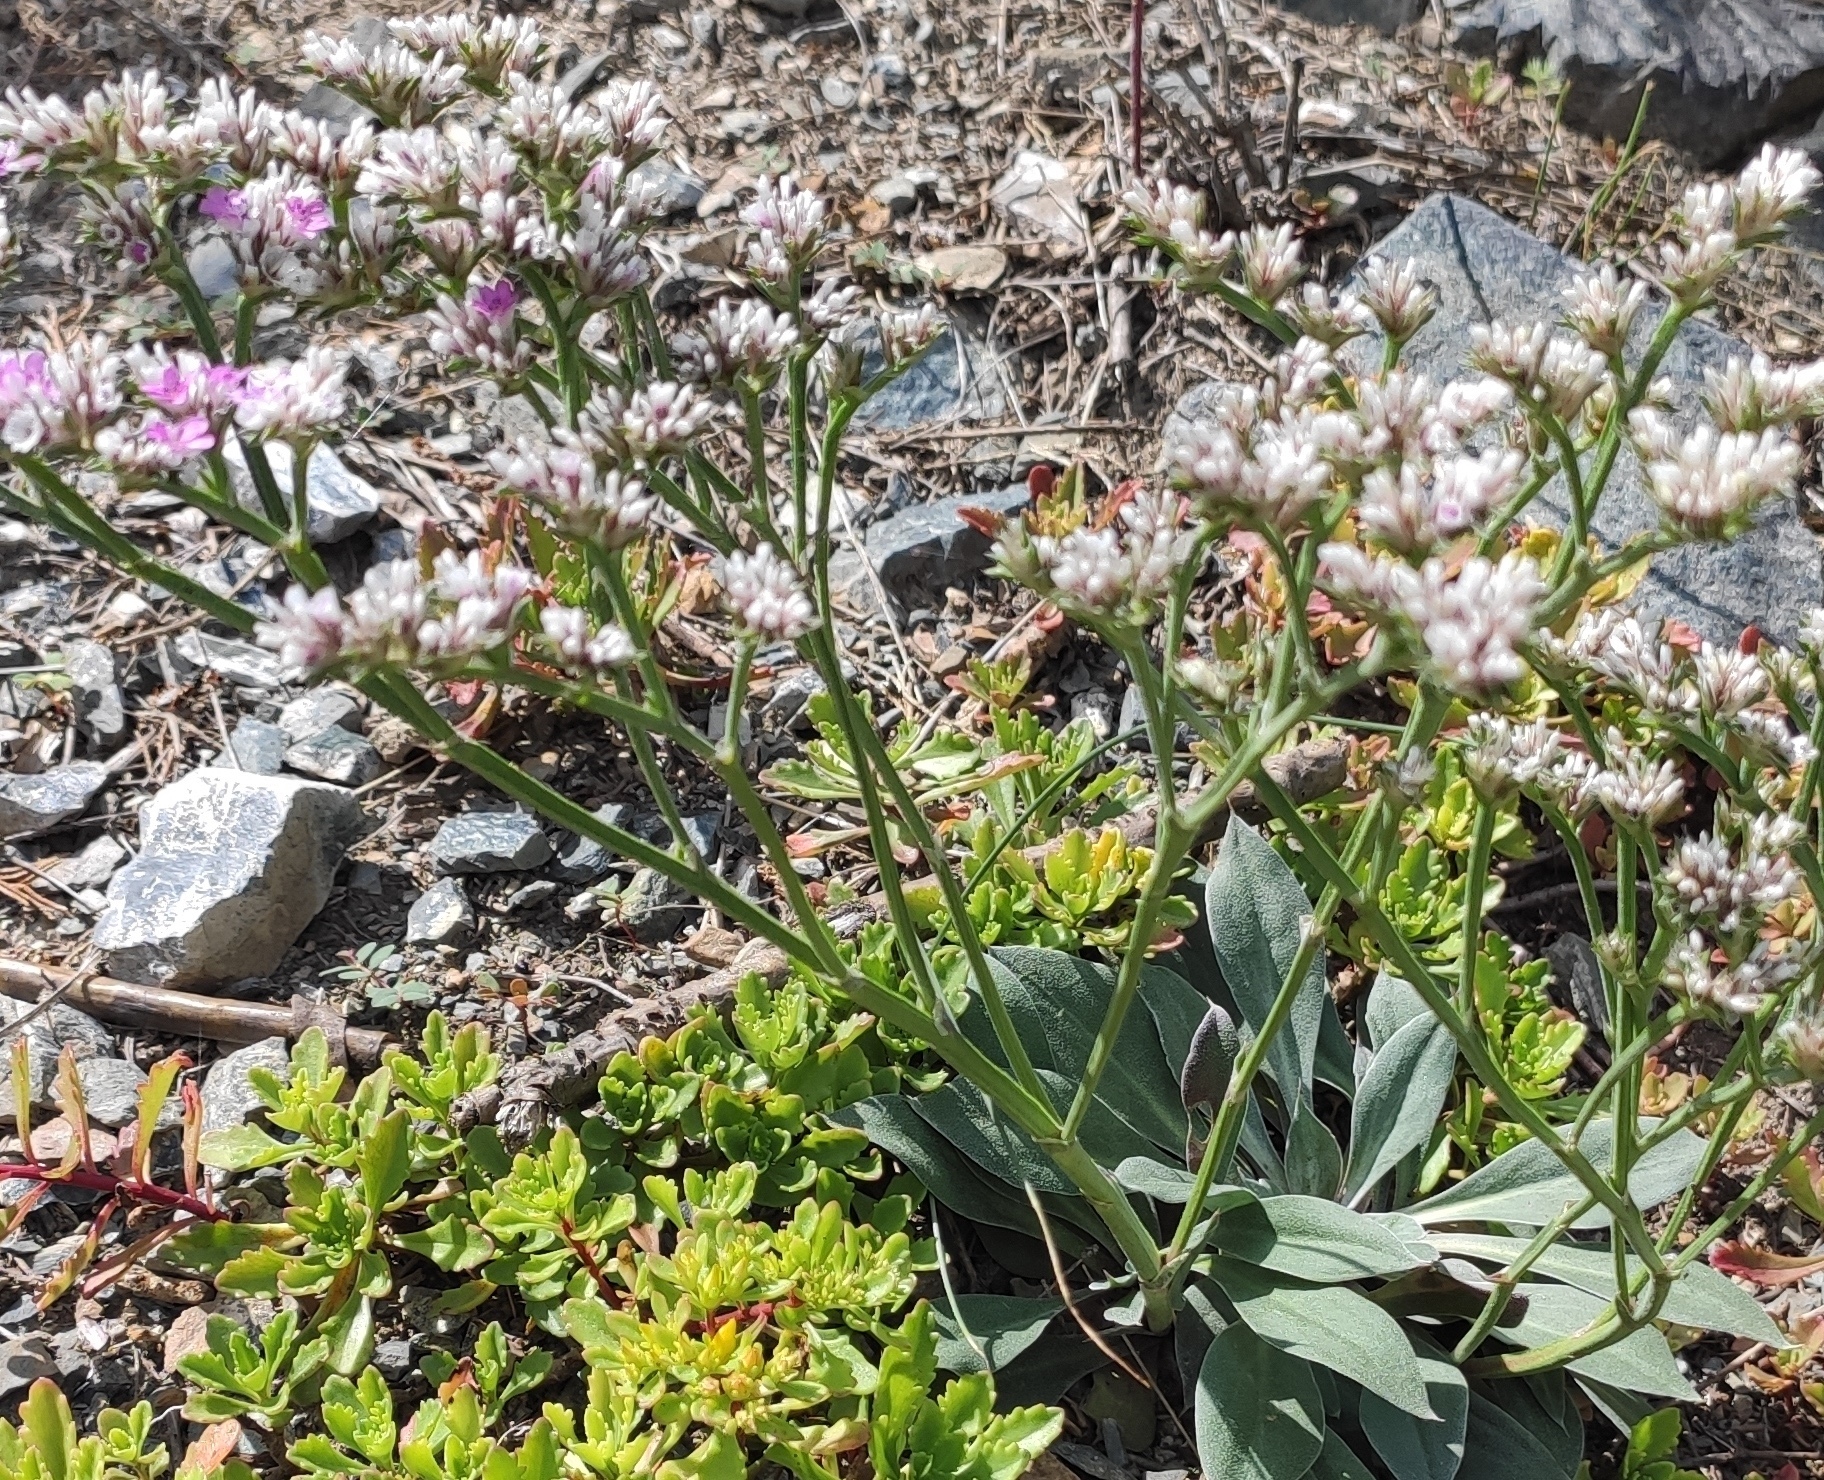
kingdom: Plantae
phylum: Tracheophyta
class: Magnoliopsida
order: Caryophyllales
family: Plumbaginaceae
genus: Goniolimon
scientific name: Goniolimon speciosum
